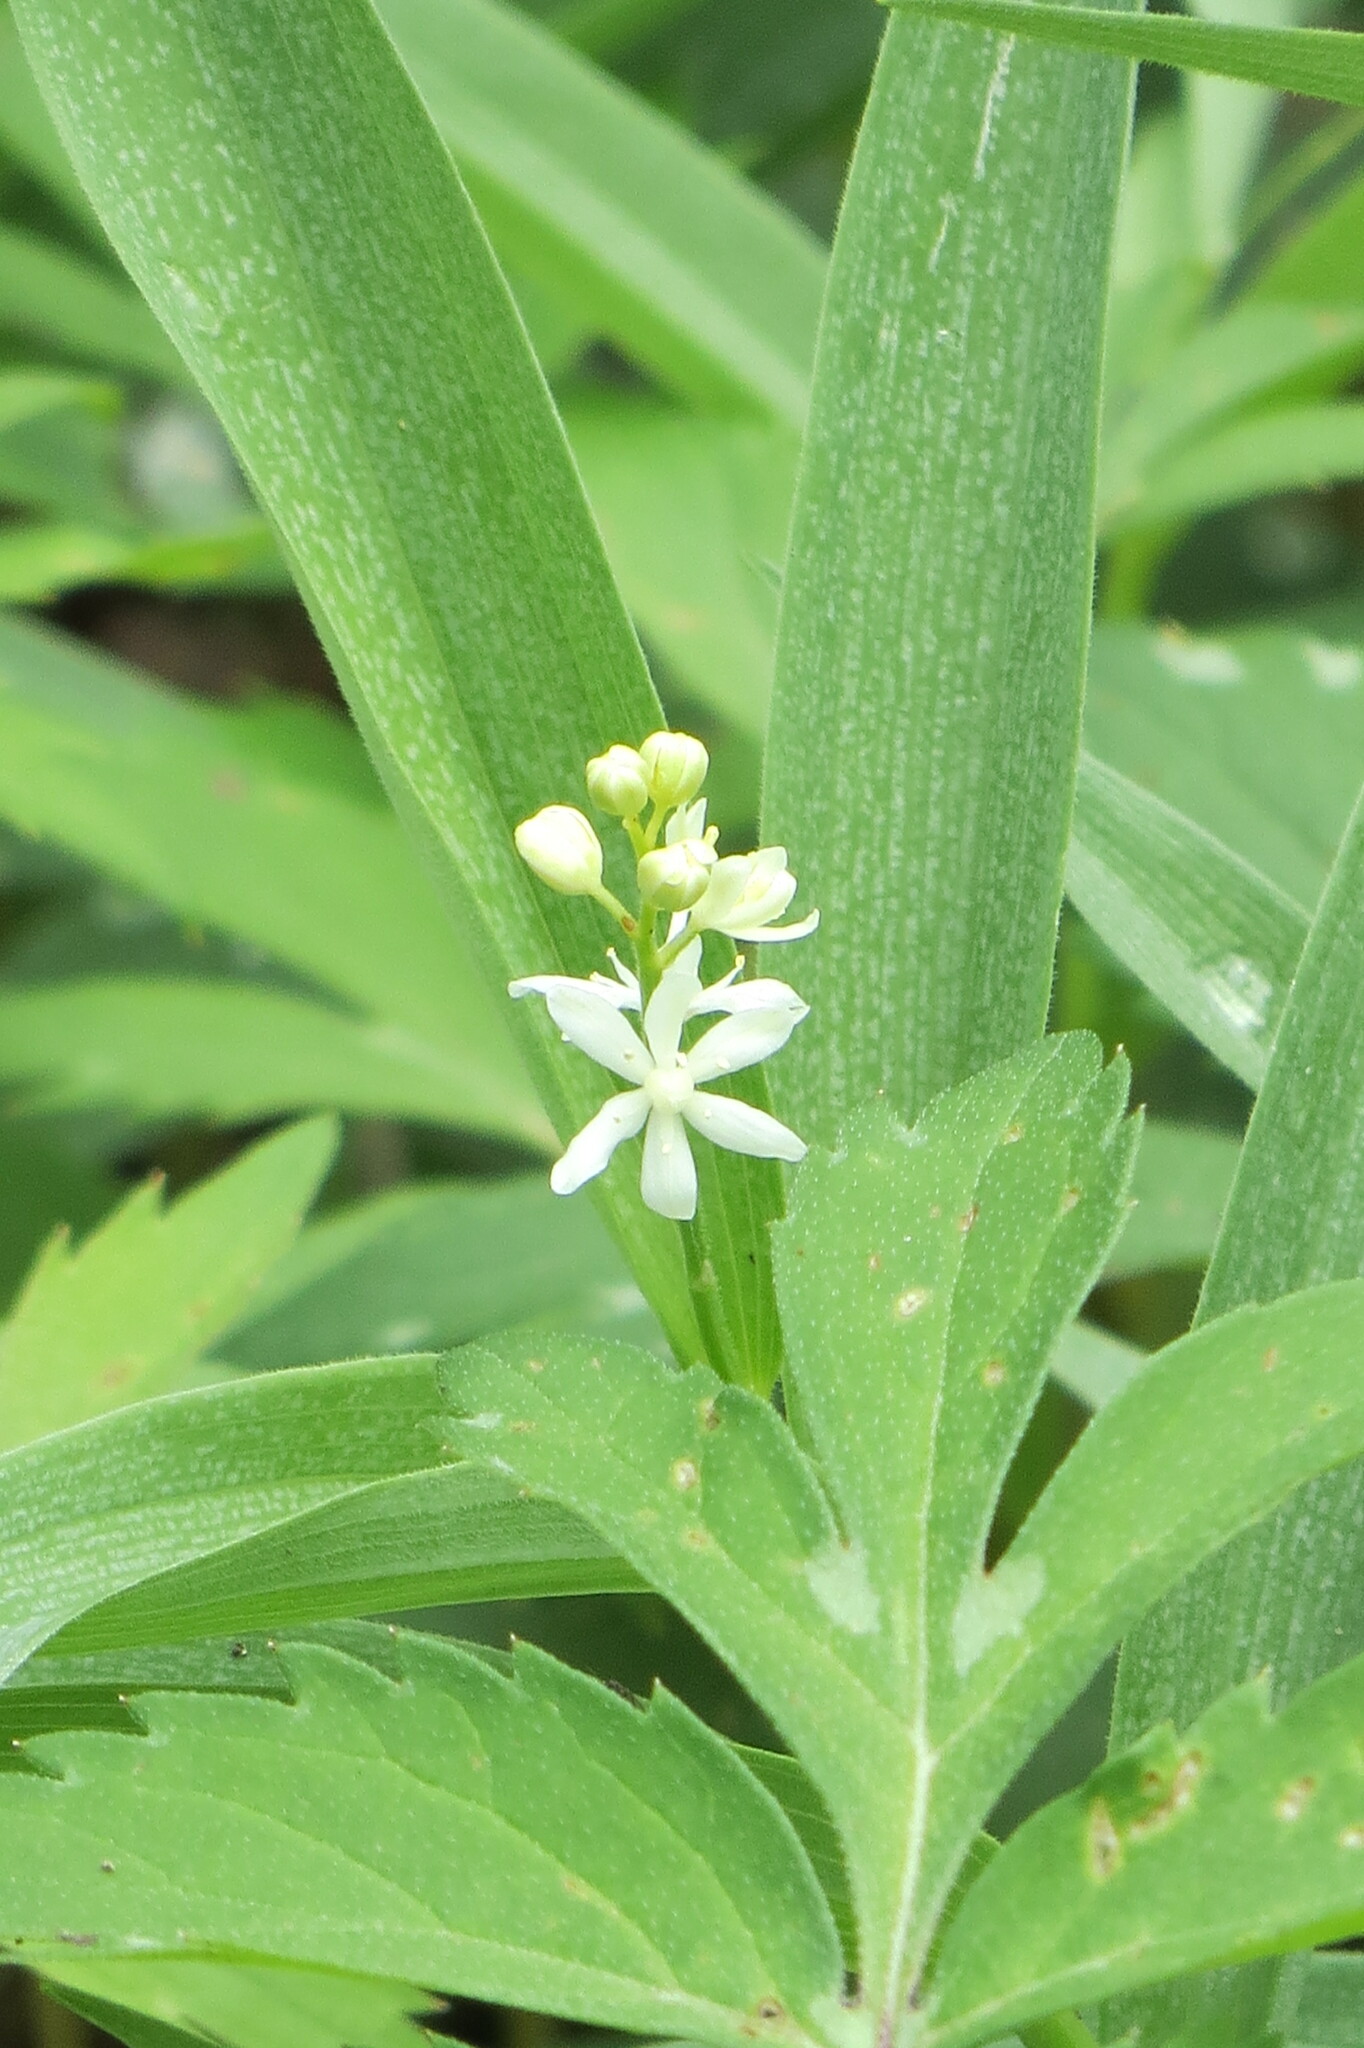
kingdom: Plantae
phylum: Tracheophyta
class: Liliopsida
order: Asparagales
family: Asparagaceae
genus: Maianthemum
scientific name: Maianthemum stellatum
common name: Little false solomon's seal
